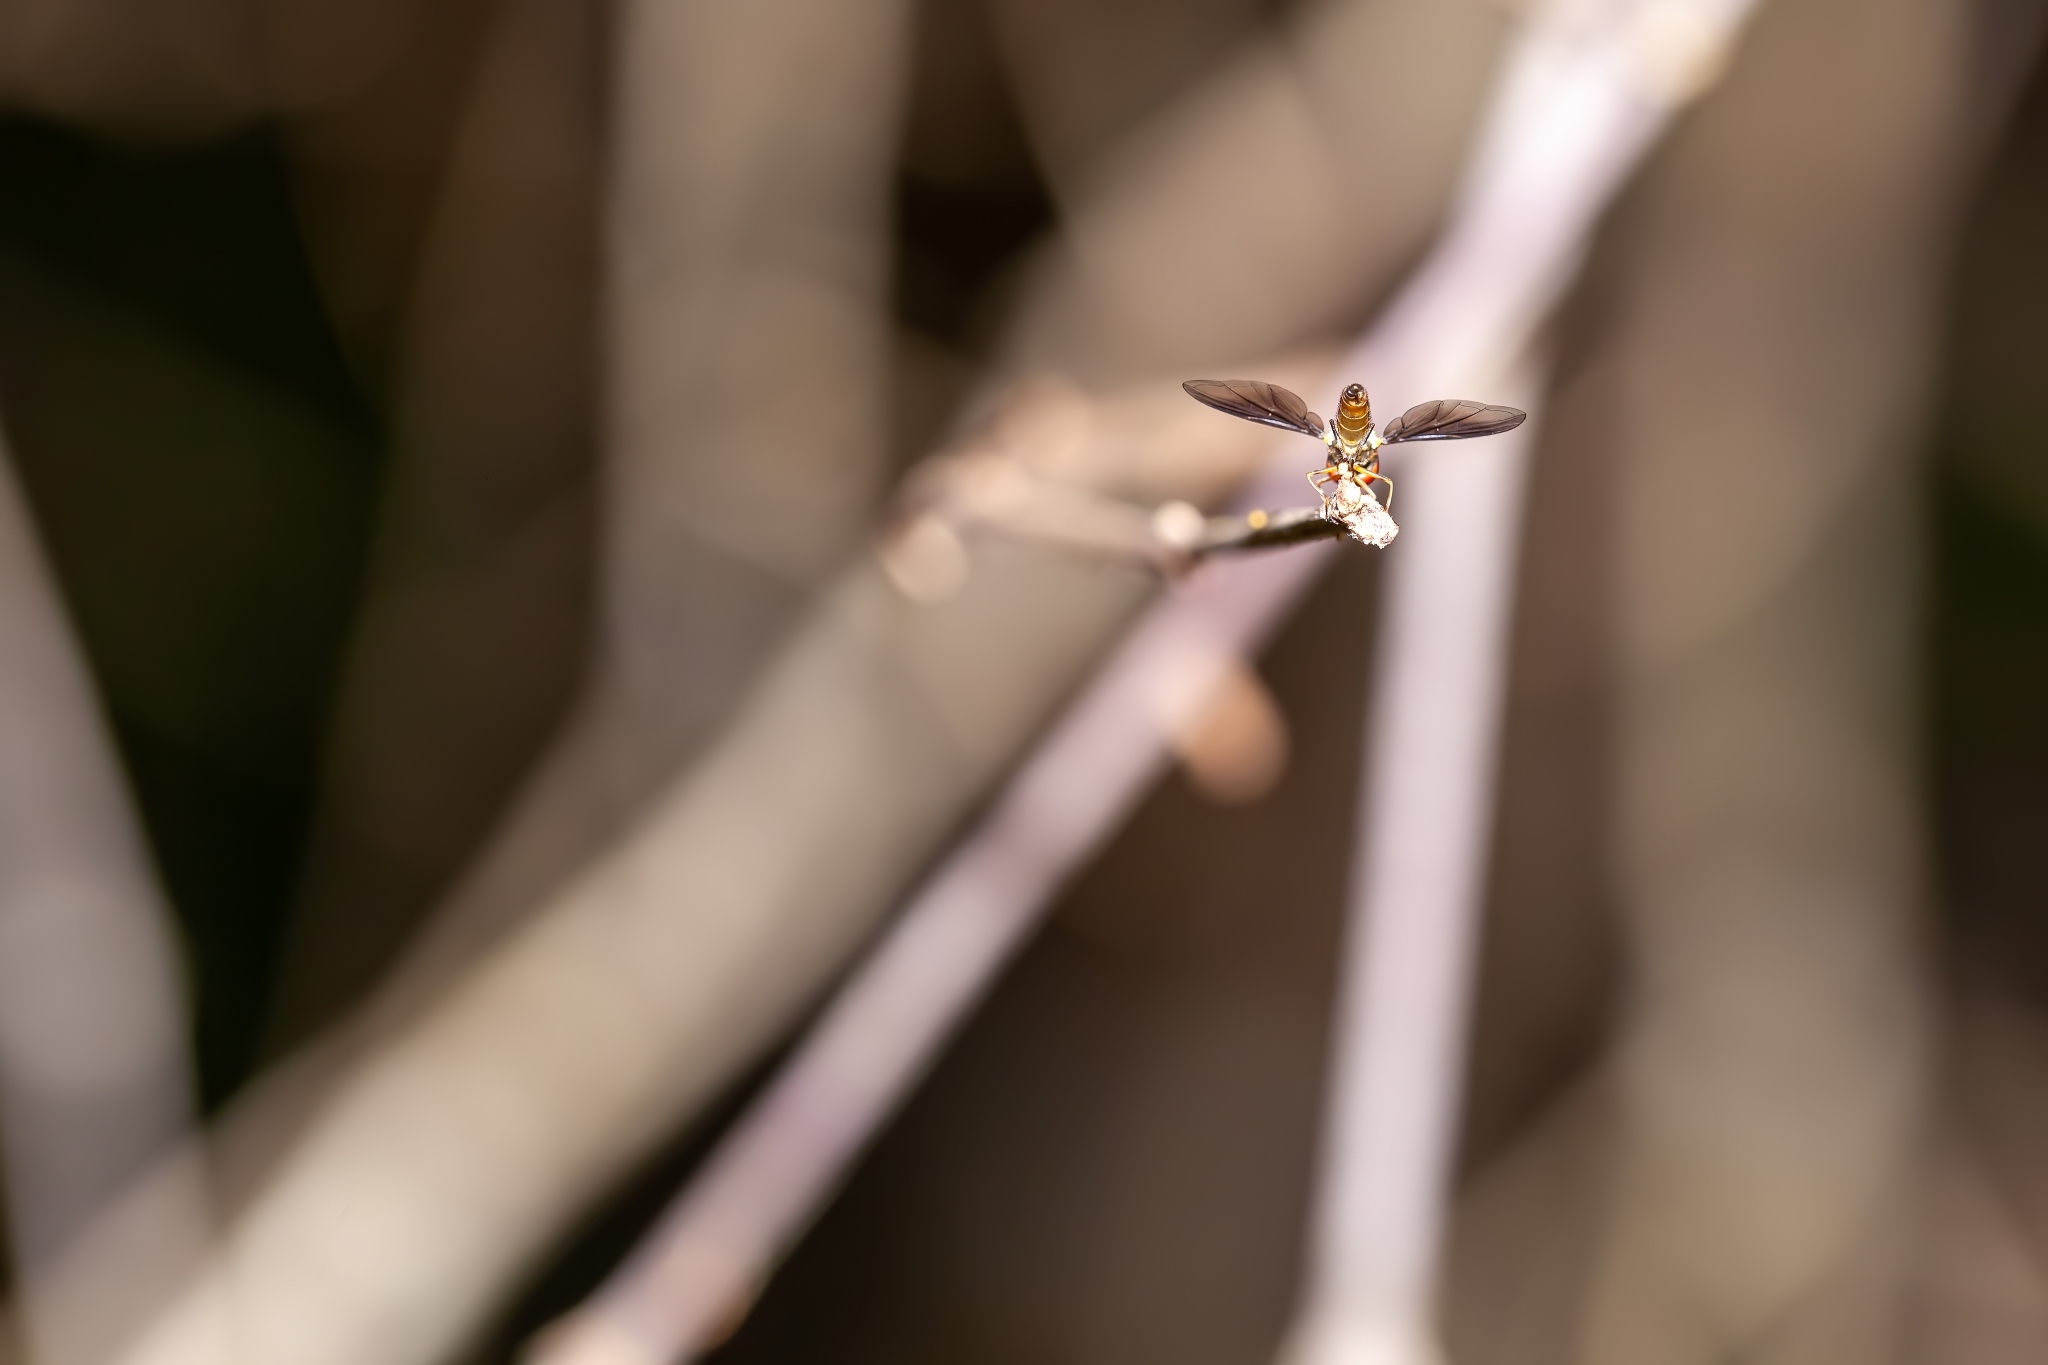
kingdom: Animalia
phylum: Arthropoda
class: Insecta
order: Diptera
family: Syrphidae
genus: Ocyptamus
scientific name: Ocyptamus
